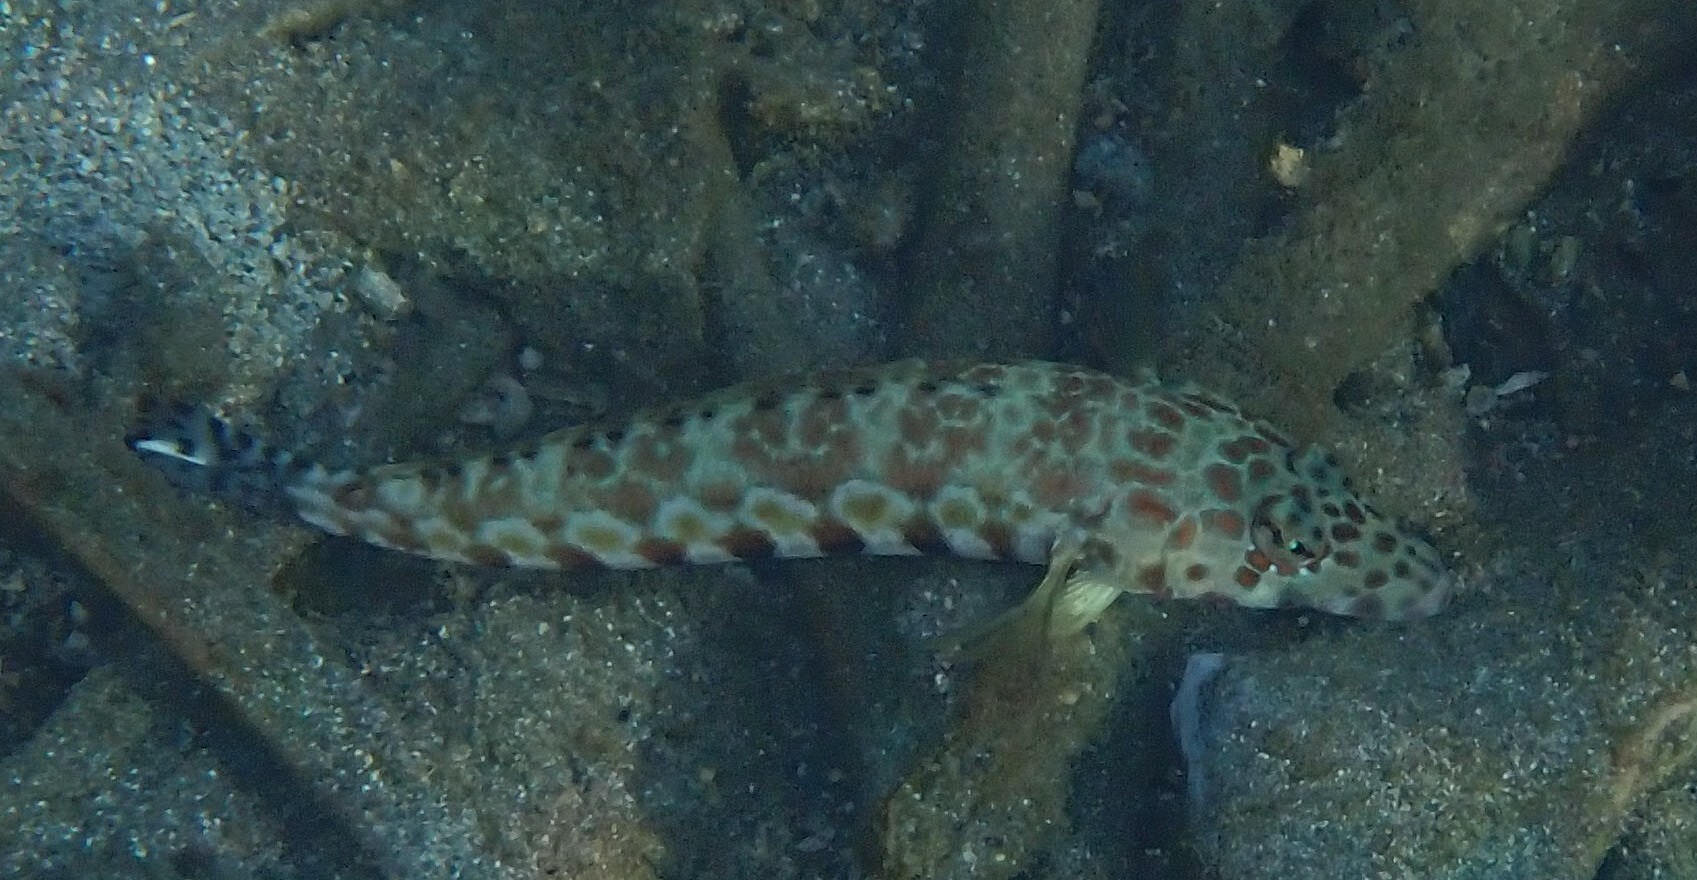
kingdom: Animalia
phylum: Chordata
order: Perciformes
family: Pinguipedidae
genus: Parapercis
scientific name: Parapercis millepunctata
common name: Black-dotted sandperch
